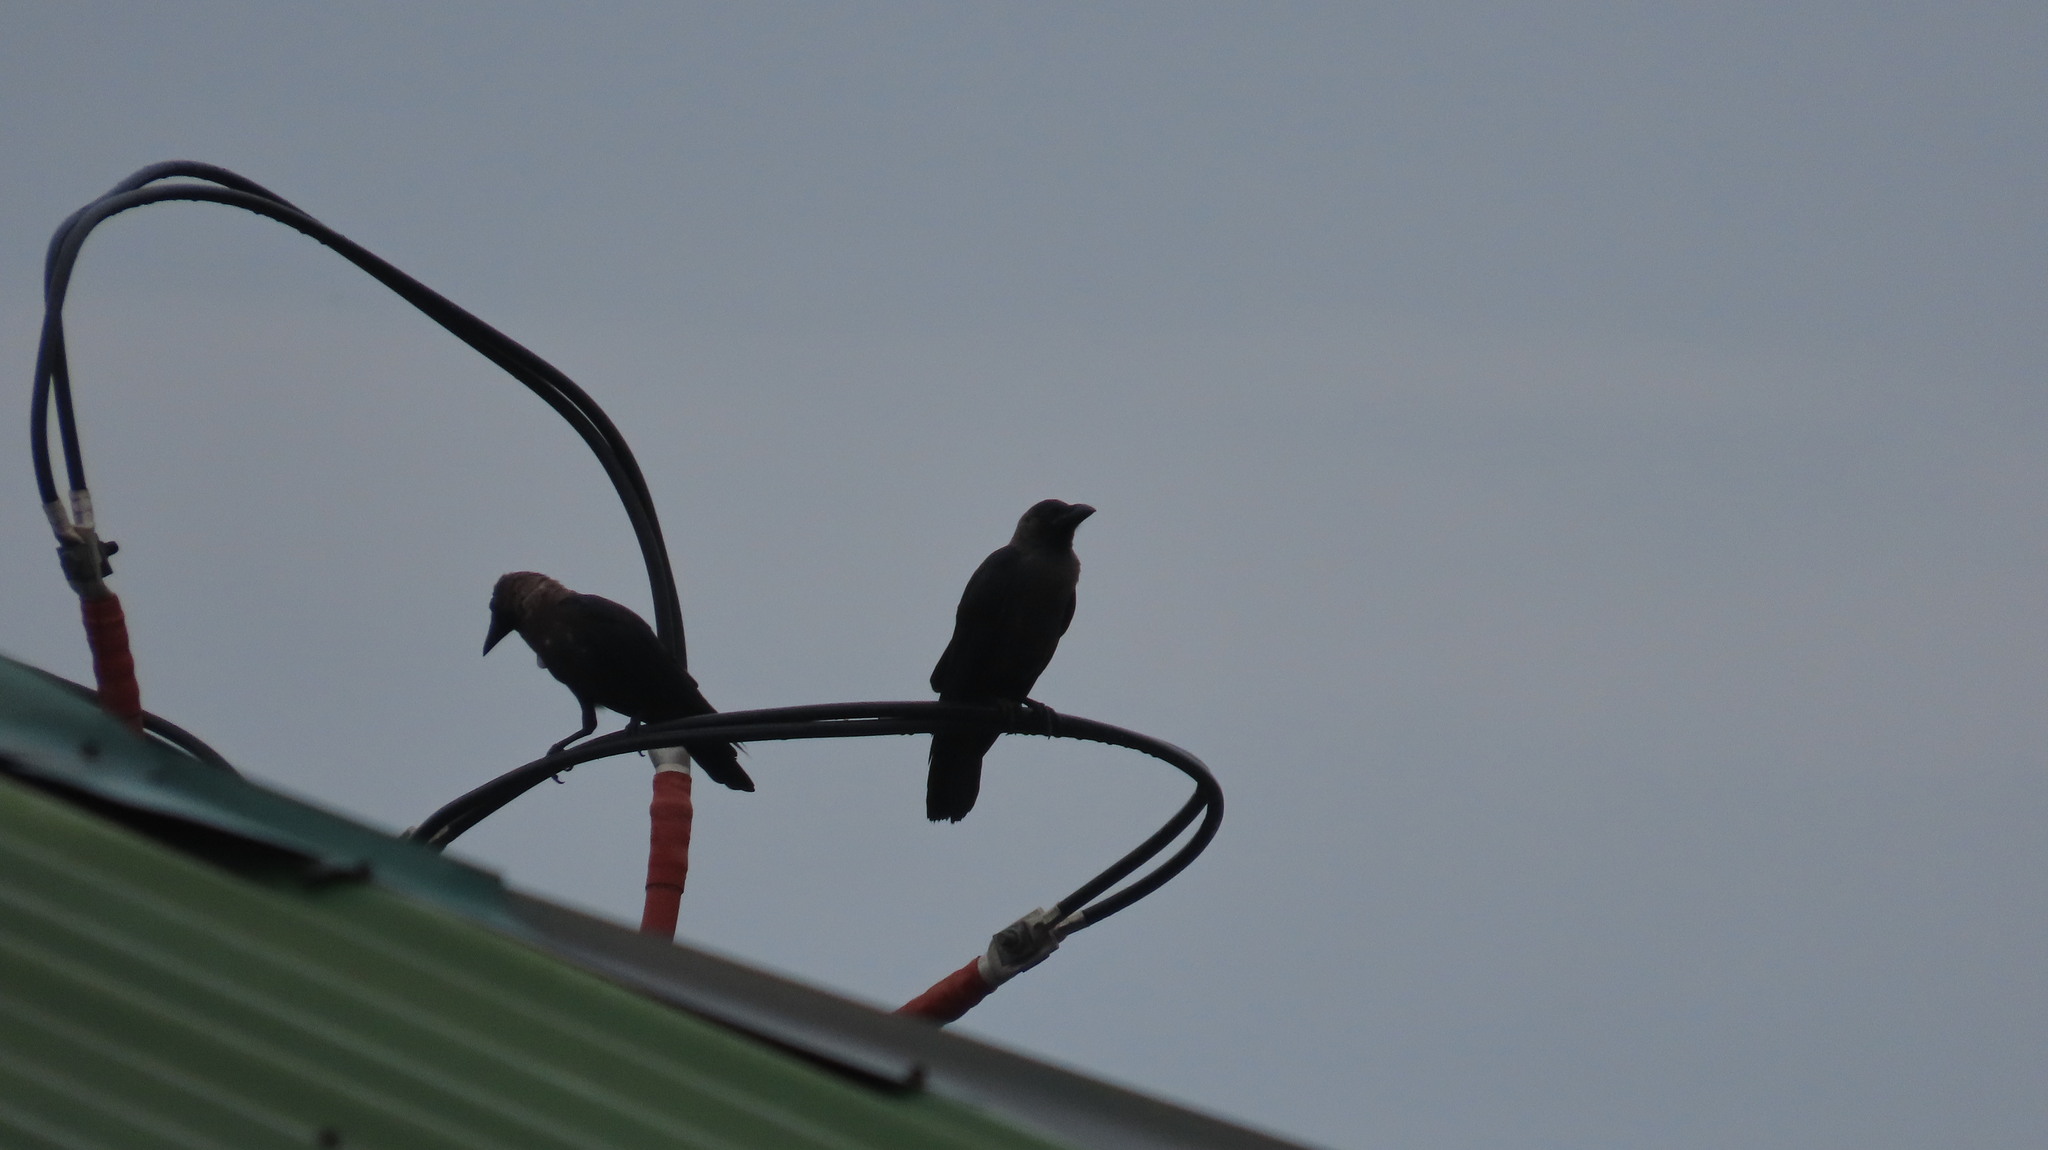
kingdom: Animalia
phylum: Chordata
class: Aves
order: Passeriformes
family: Corvidae
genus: Corvus
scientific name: Corvus splendens
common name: House crow
